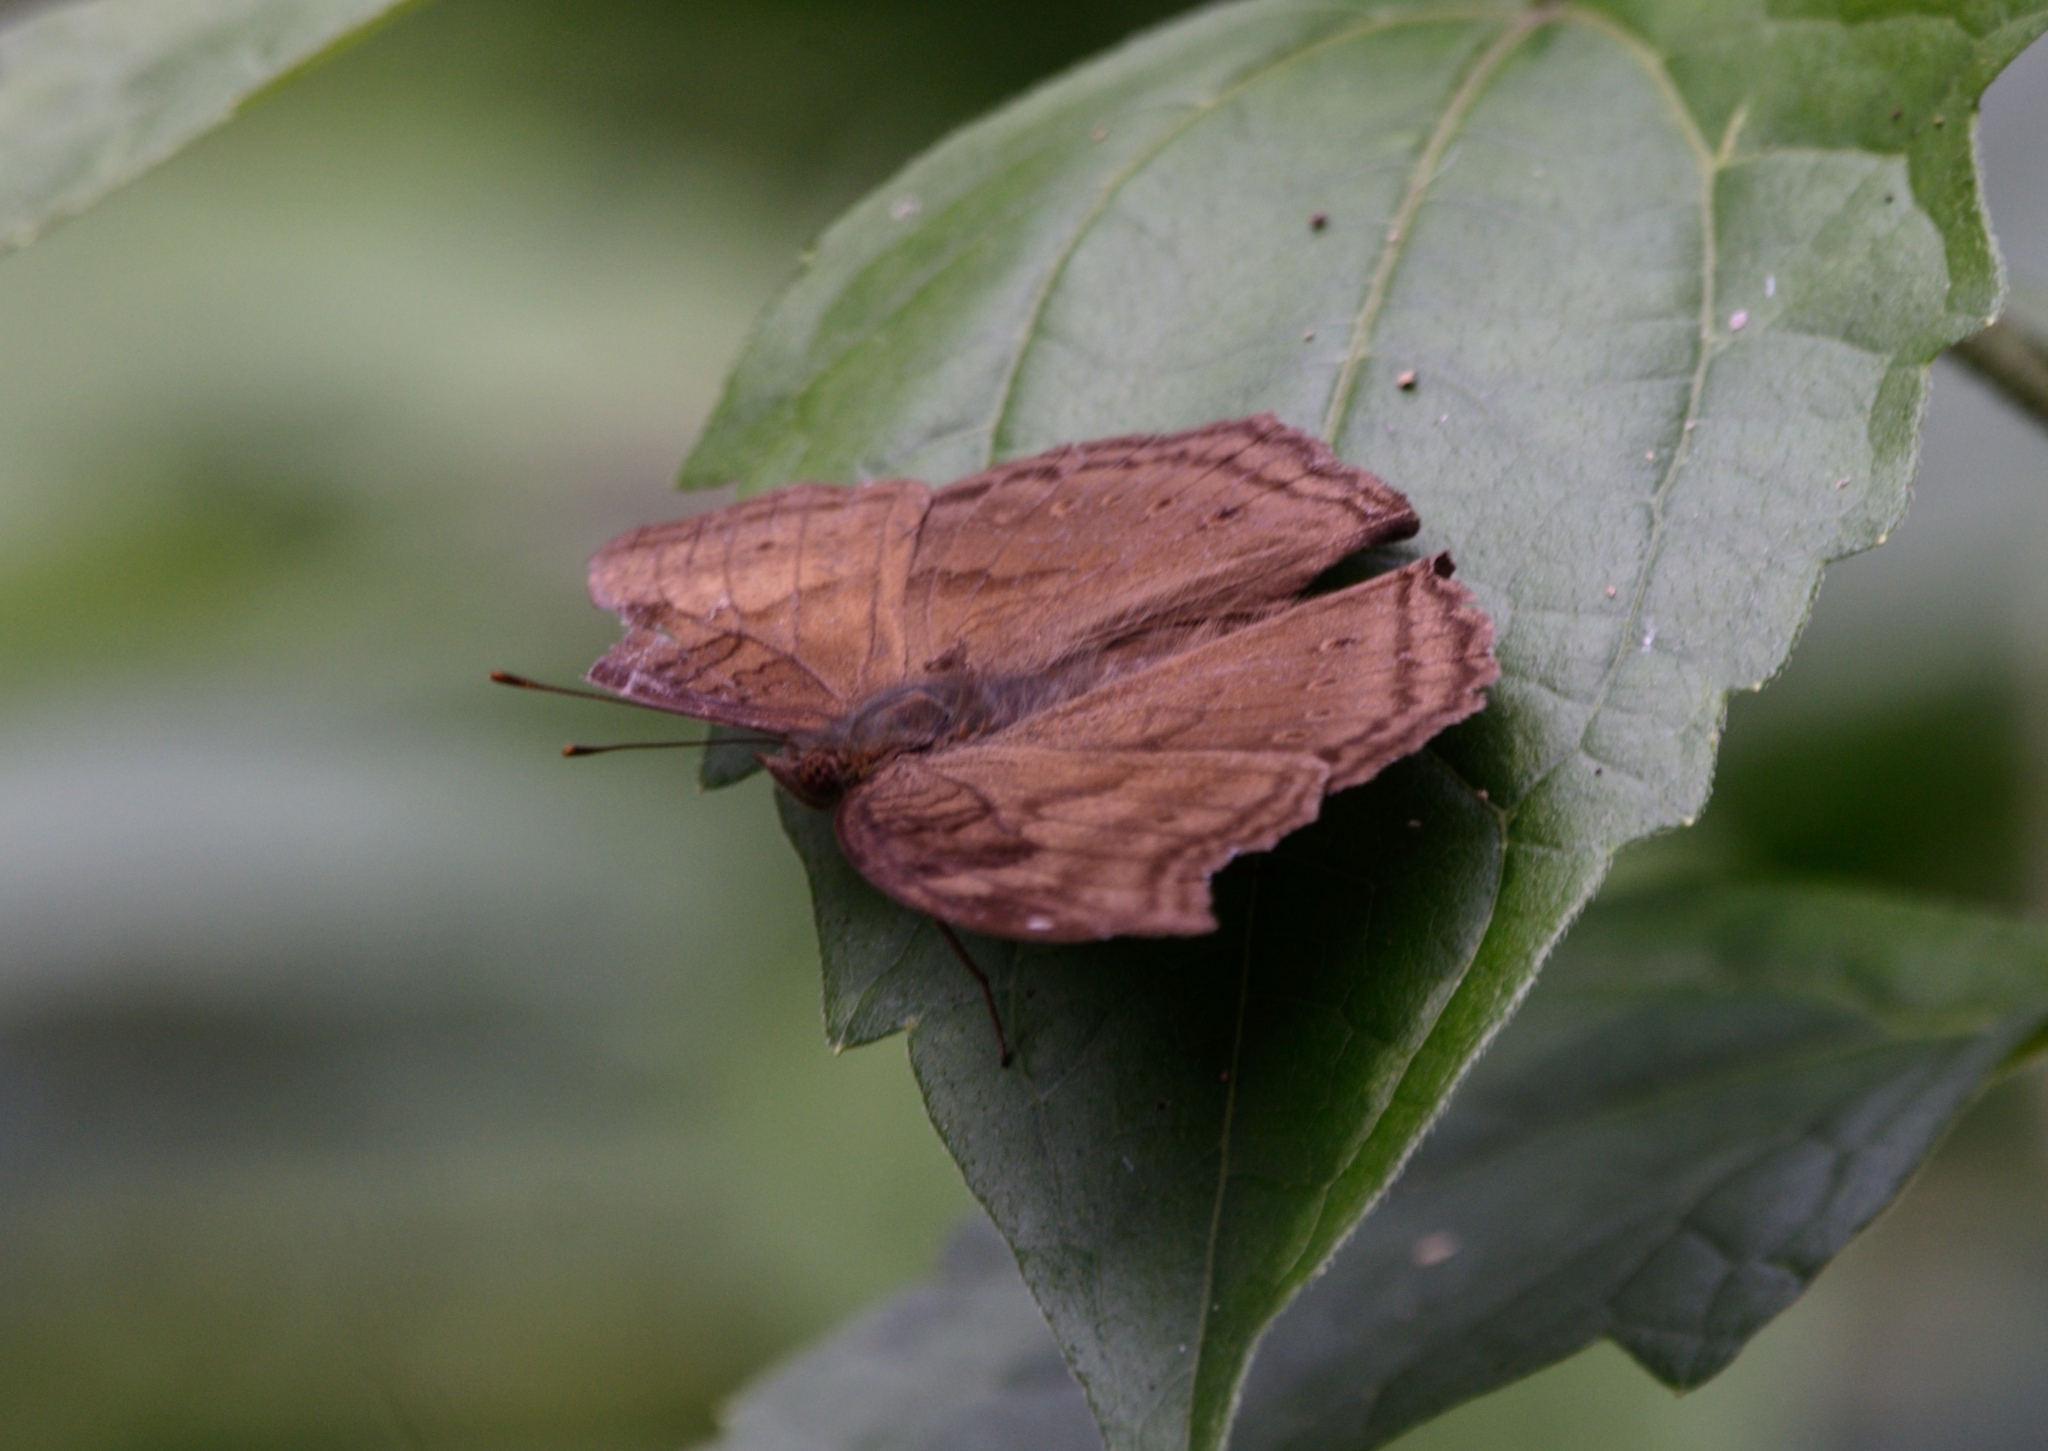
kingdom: Animalia
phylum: Arthropoda
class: Insecta
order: Lepidoptera
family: Nymphalidae
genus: Junonia
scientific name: Junonia iphita
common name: Chocolate pansy
